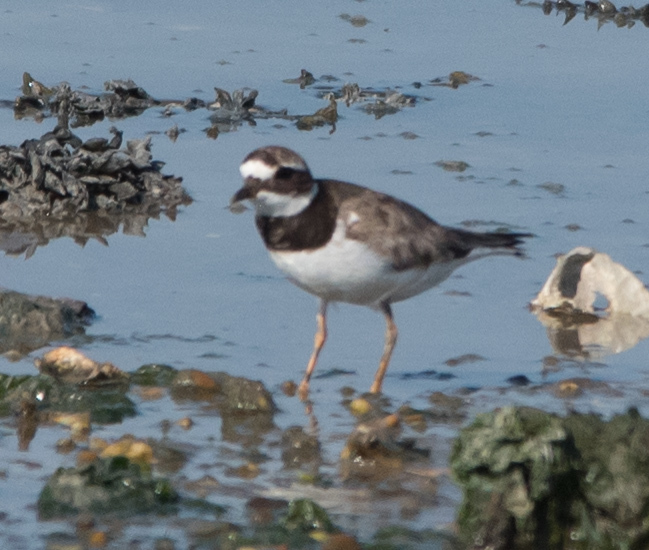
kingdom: Animalia
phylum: Chordata
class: Aves
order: Charadriiformes
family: Charadriidae
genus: Charadrius
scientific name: Charadrius hiaticula
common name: Common ringed plover
